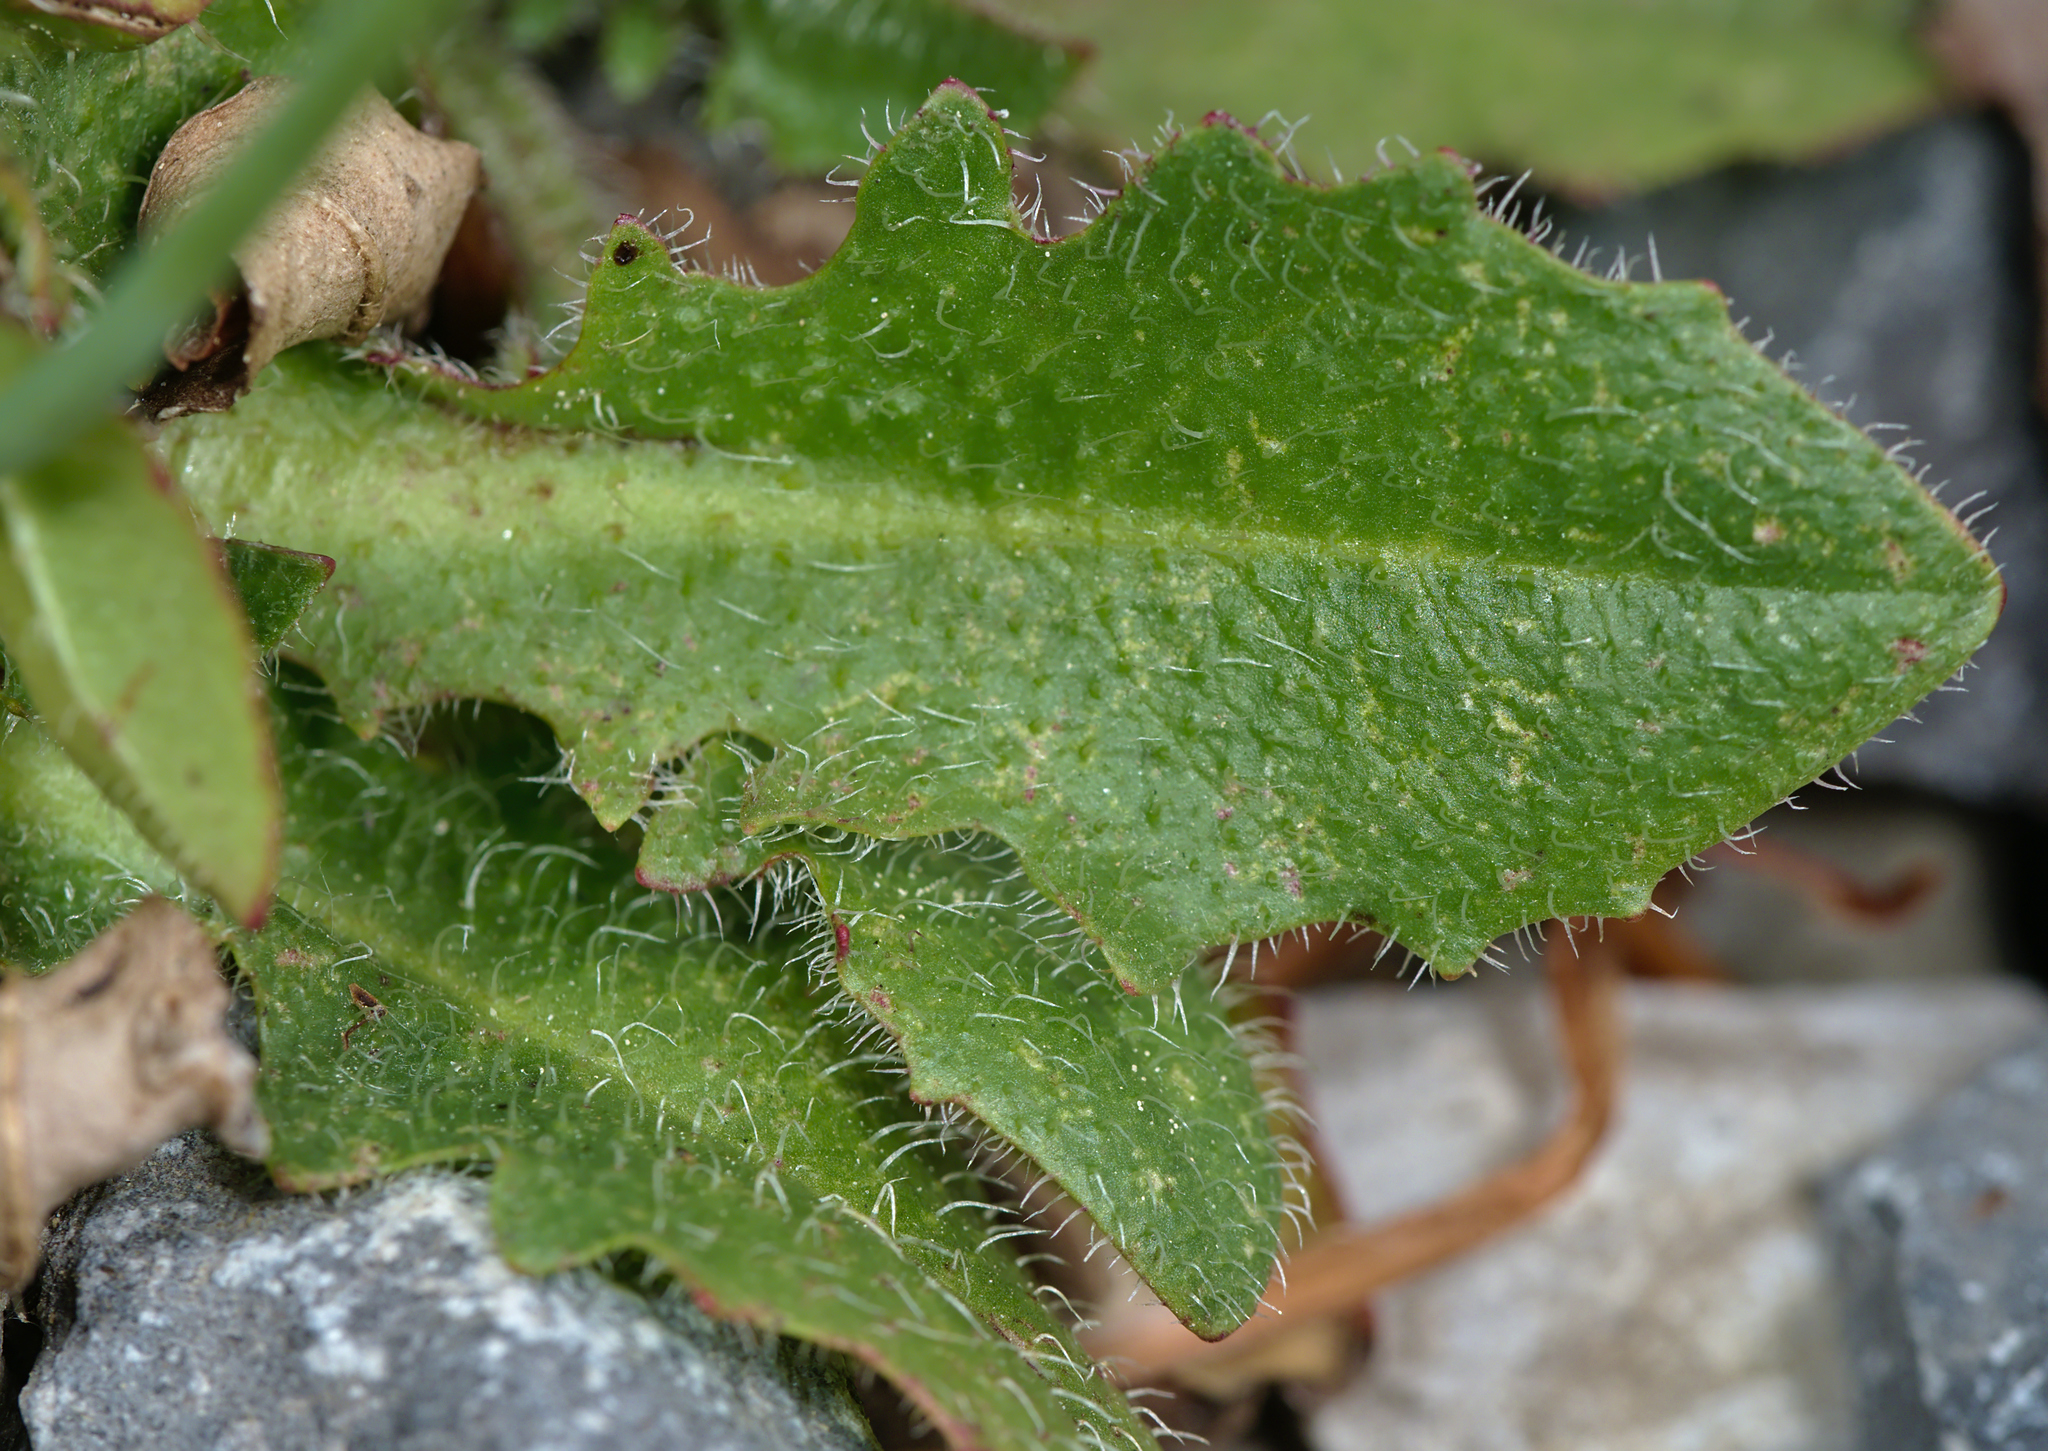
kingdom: Plantae
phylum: Tracheophyta
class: Magnoliopsida
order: Asterales
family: Asteraceae
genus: Hypochaeris
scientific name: Hypochaeris radicata
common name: Flatweed
